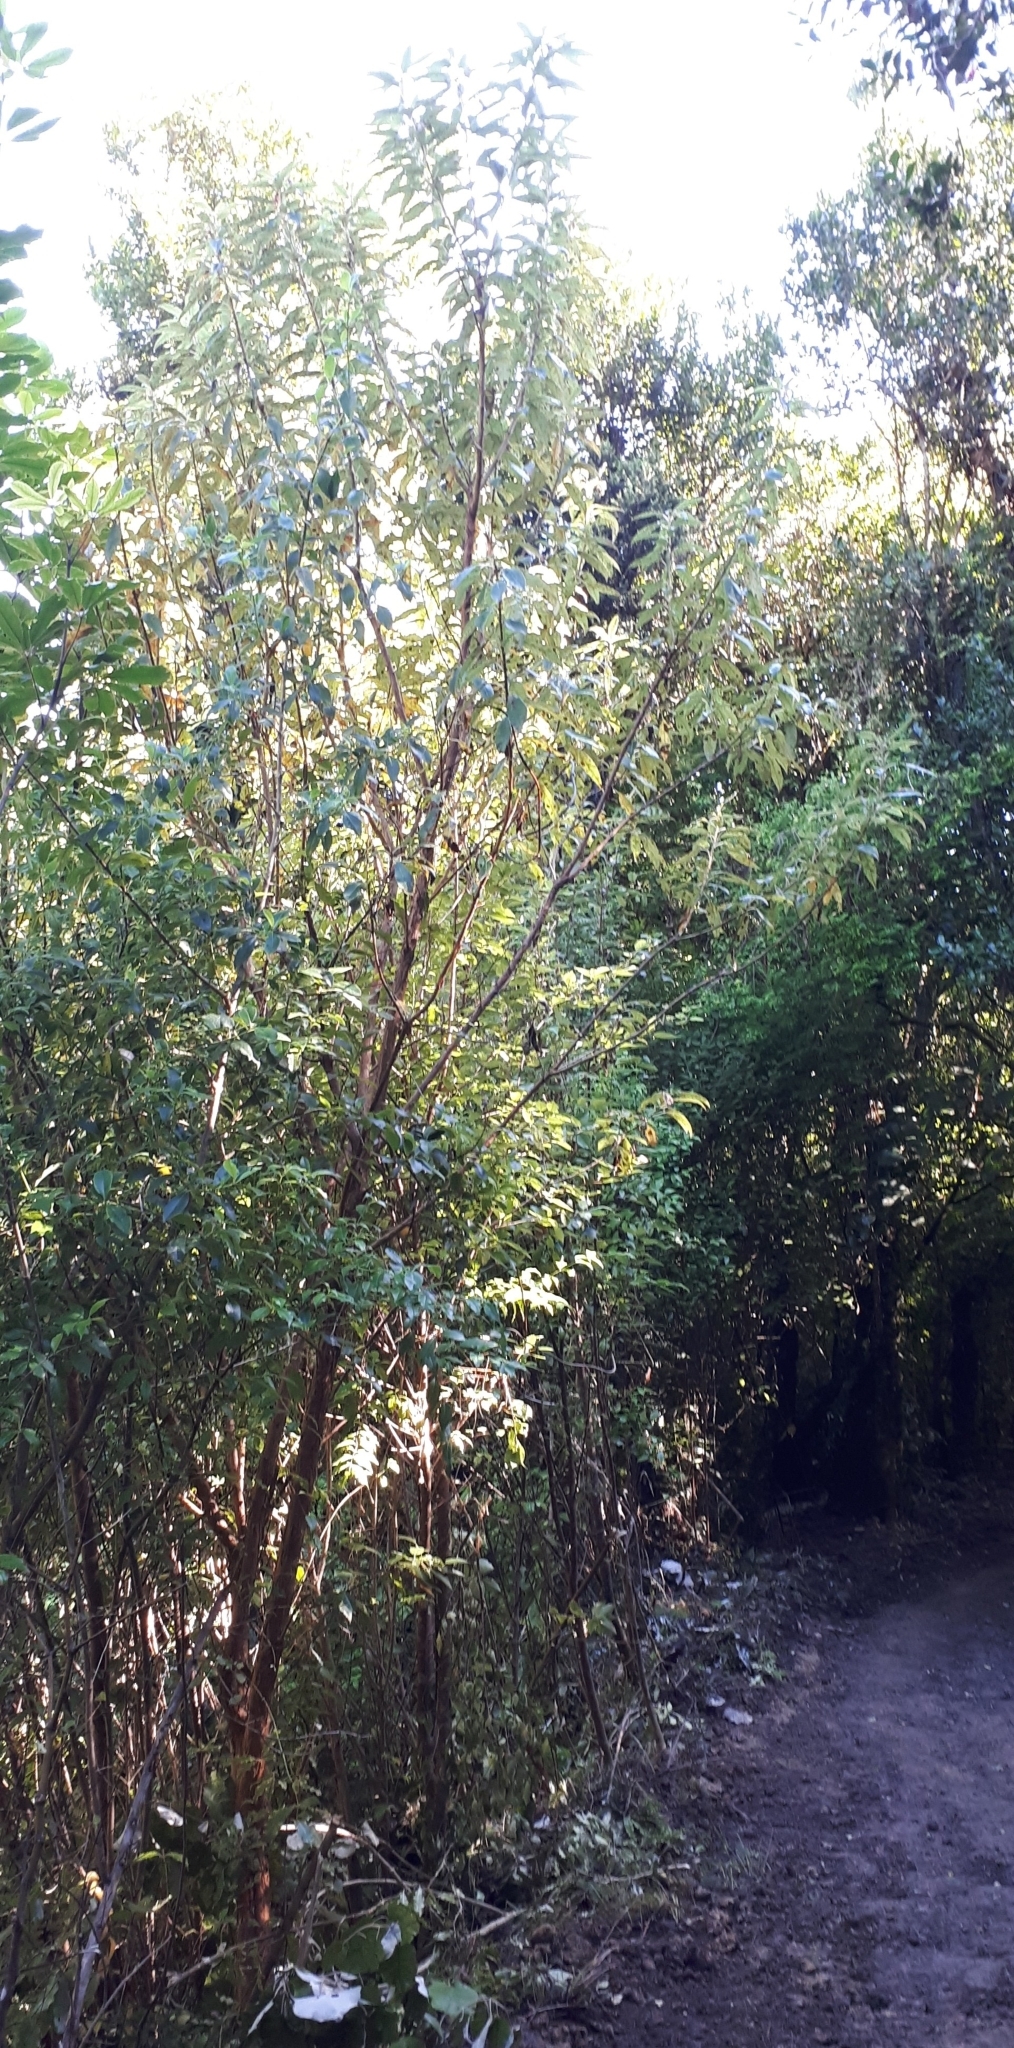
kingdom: Plantae
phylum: Tracheophyta
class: Magnoliopsida
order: Myrtales
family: Onagraceae
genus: Fuchsia
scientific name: Fuchsia excorticata
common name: Tree fuchsia
